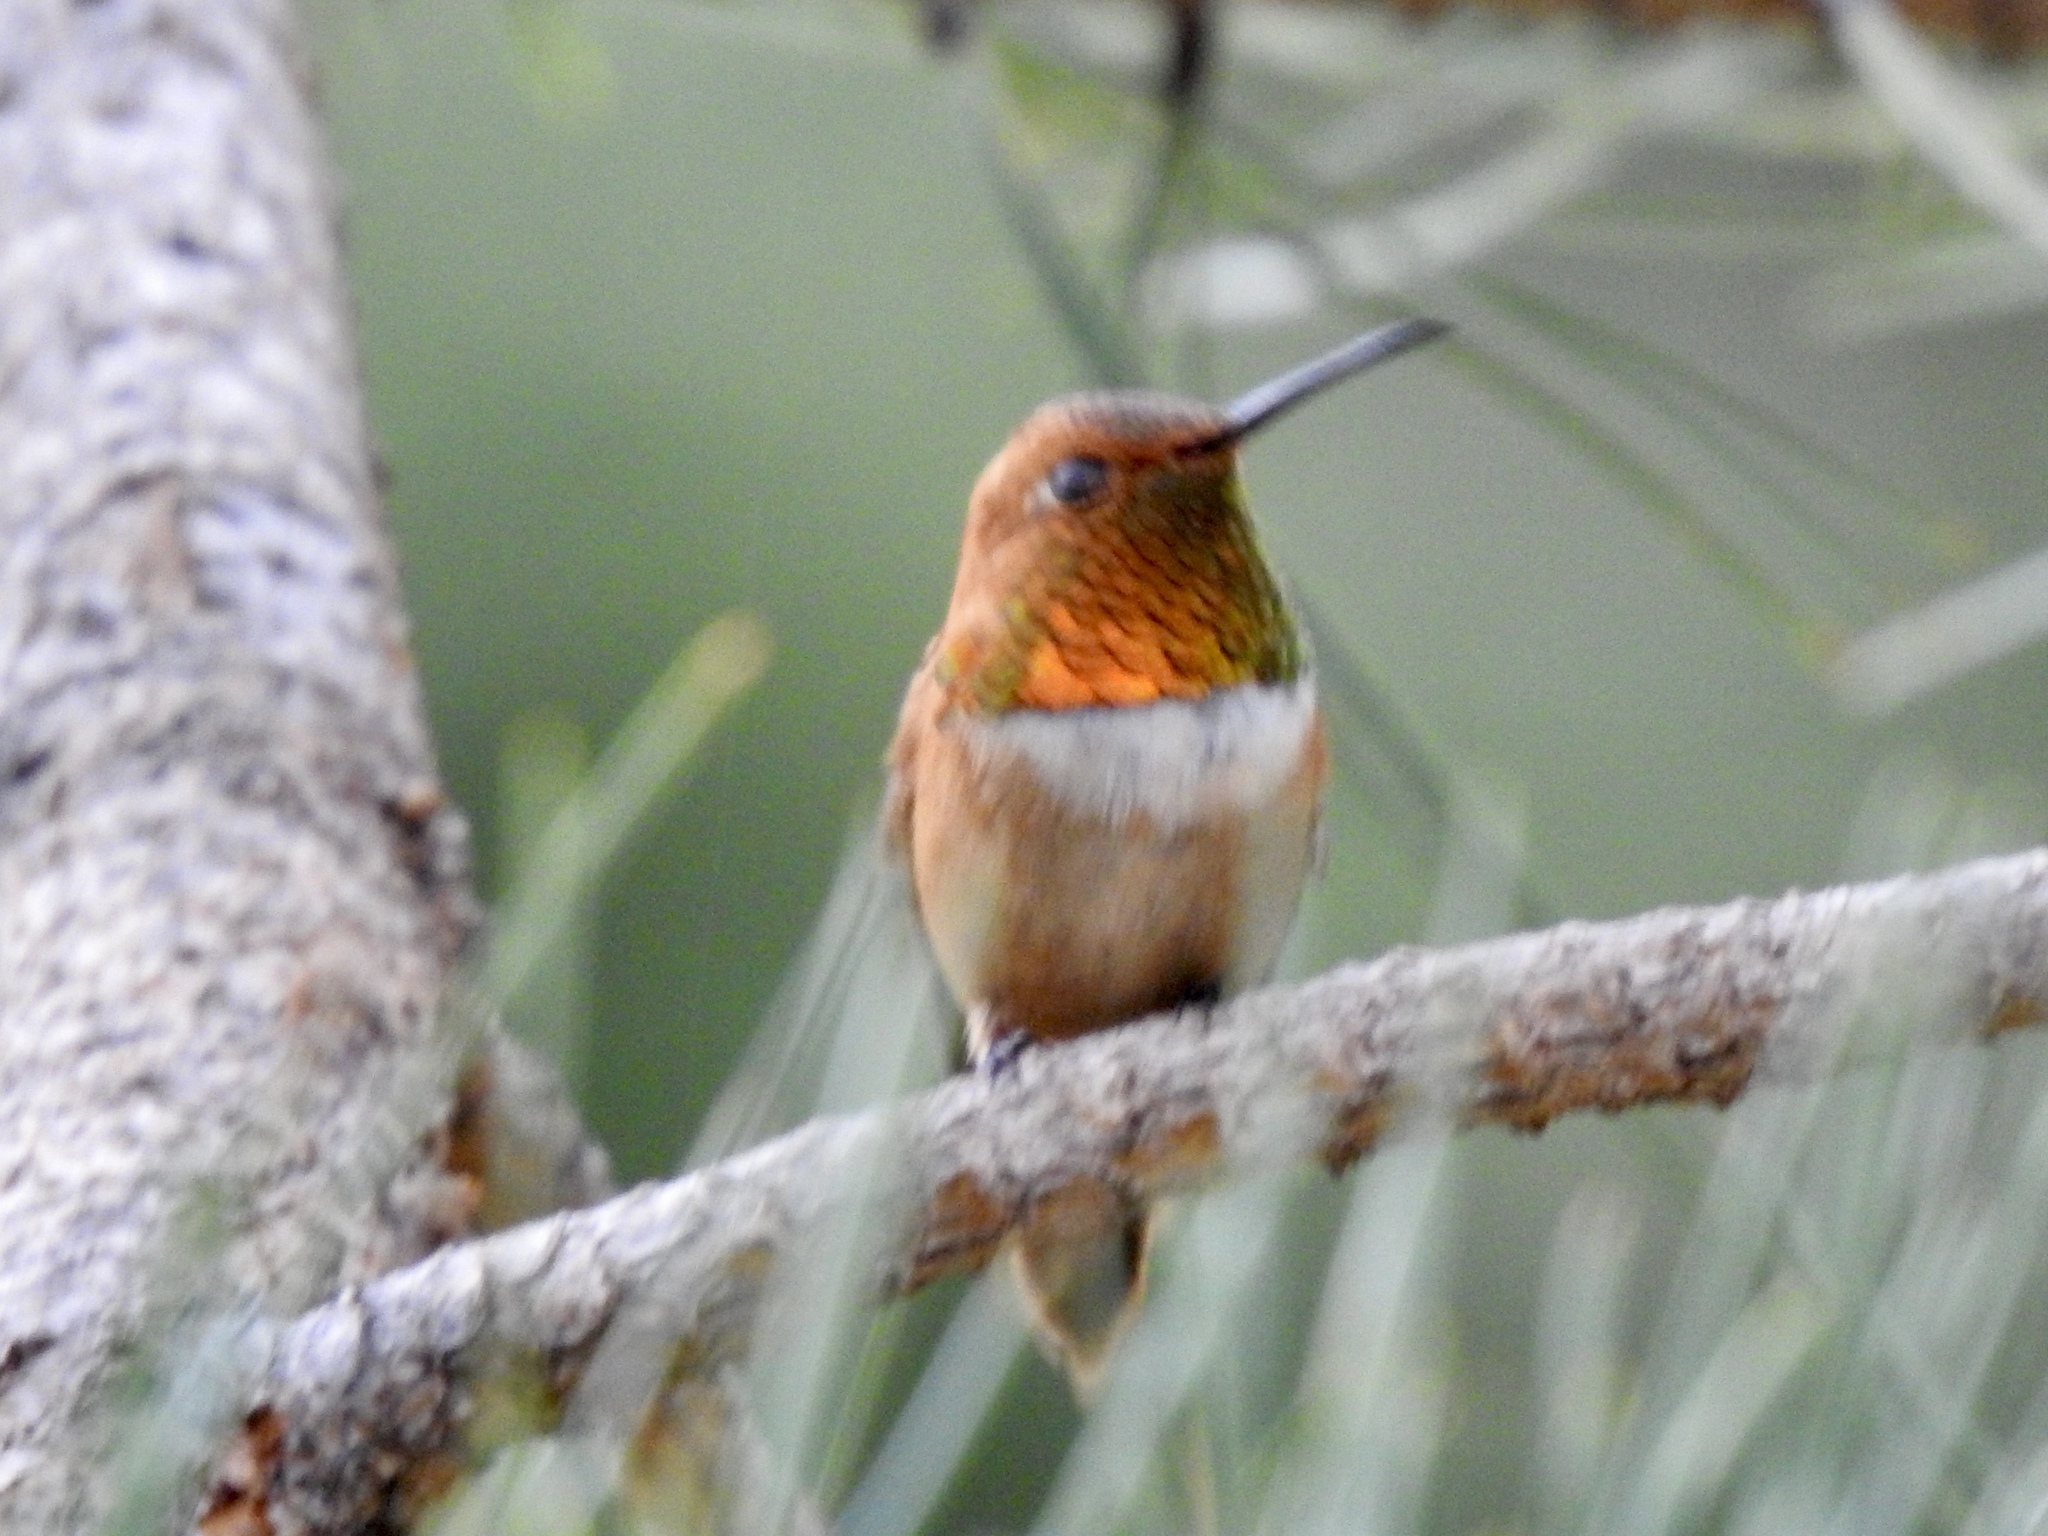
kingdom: Animalia
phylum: Chordata
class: Aves
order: Apodiformes
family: Trochilidae
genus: Selasphorus
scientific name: Selasphorus rufus
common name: Rufous hummingbird
